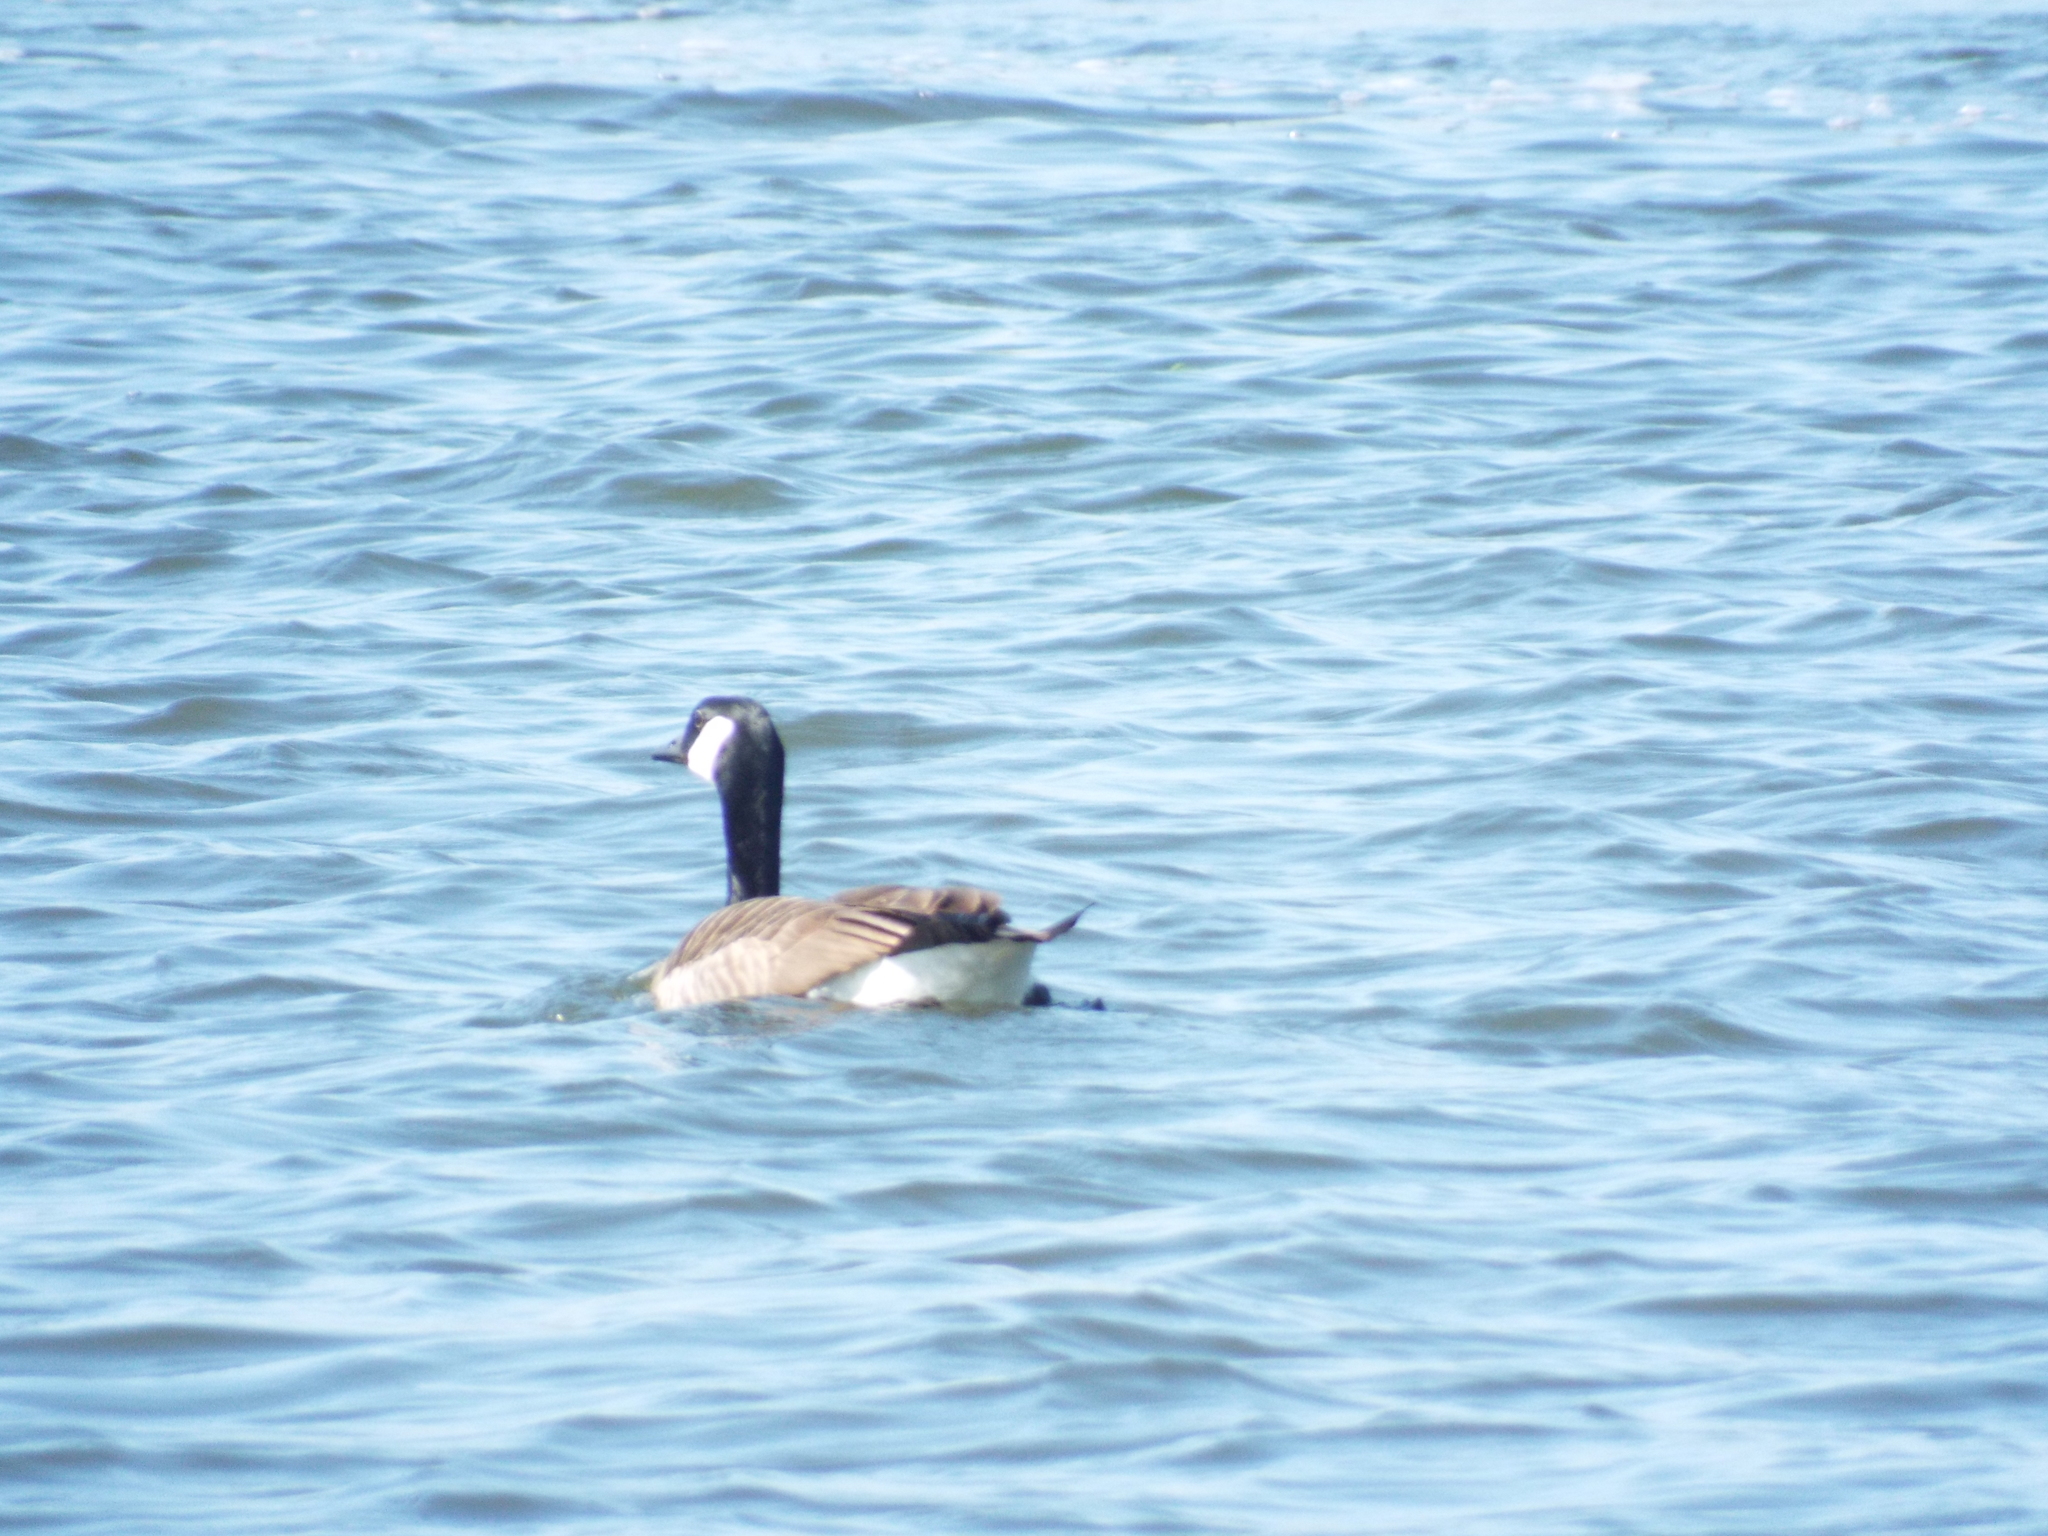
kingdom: Animalia
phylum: Chordata
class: Aves
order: Anseriformes
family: Anatidae
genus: Branta
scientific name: Branta canadensis
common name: Canada goose
